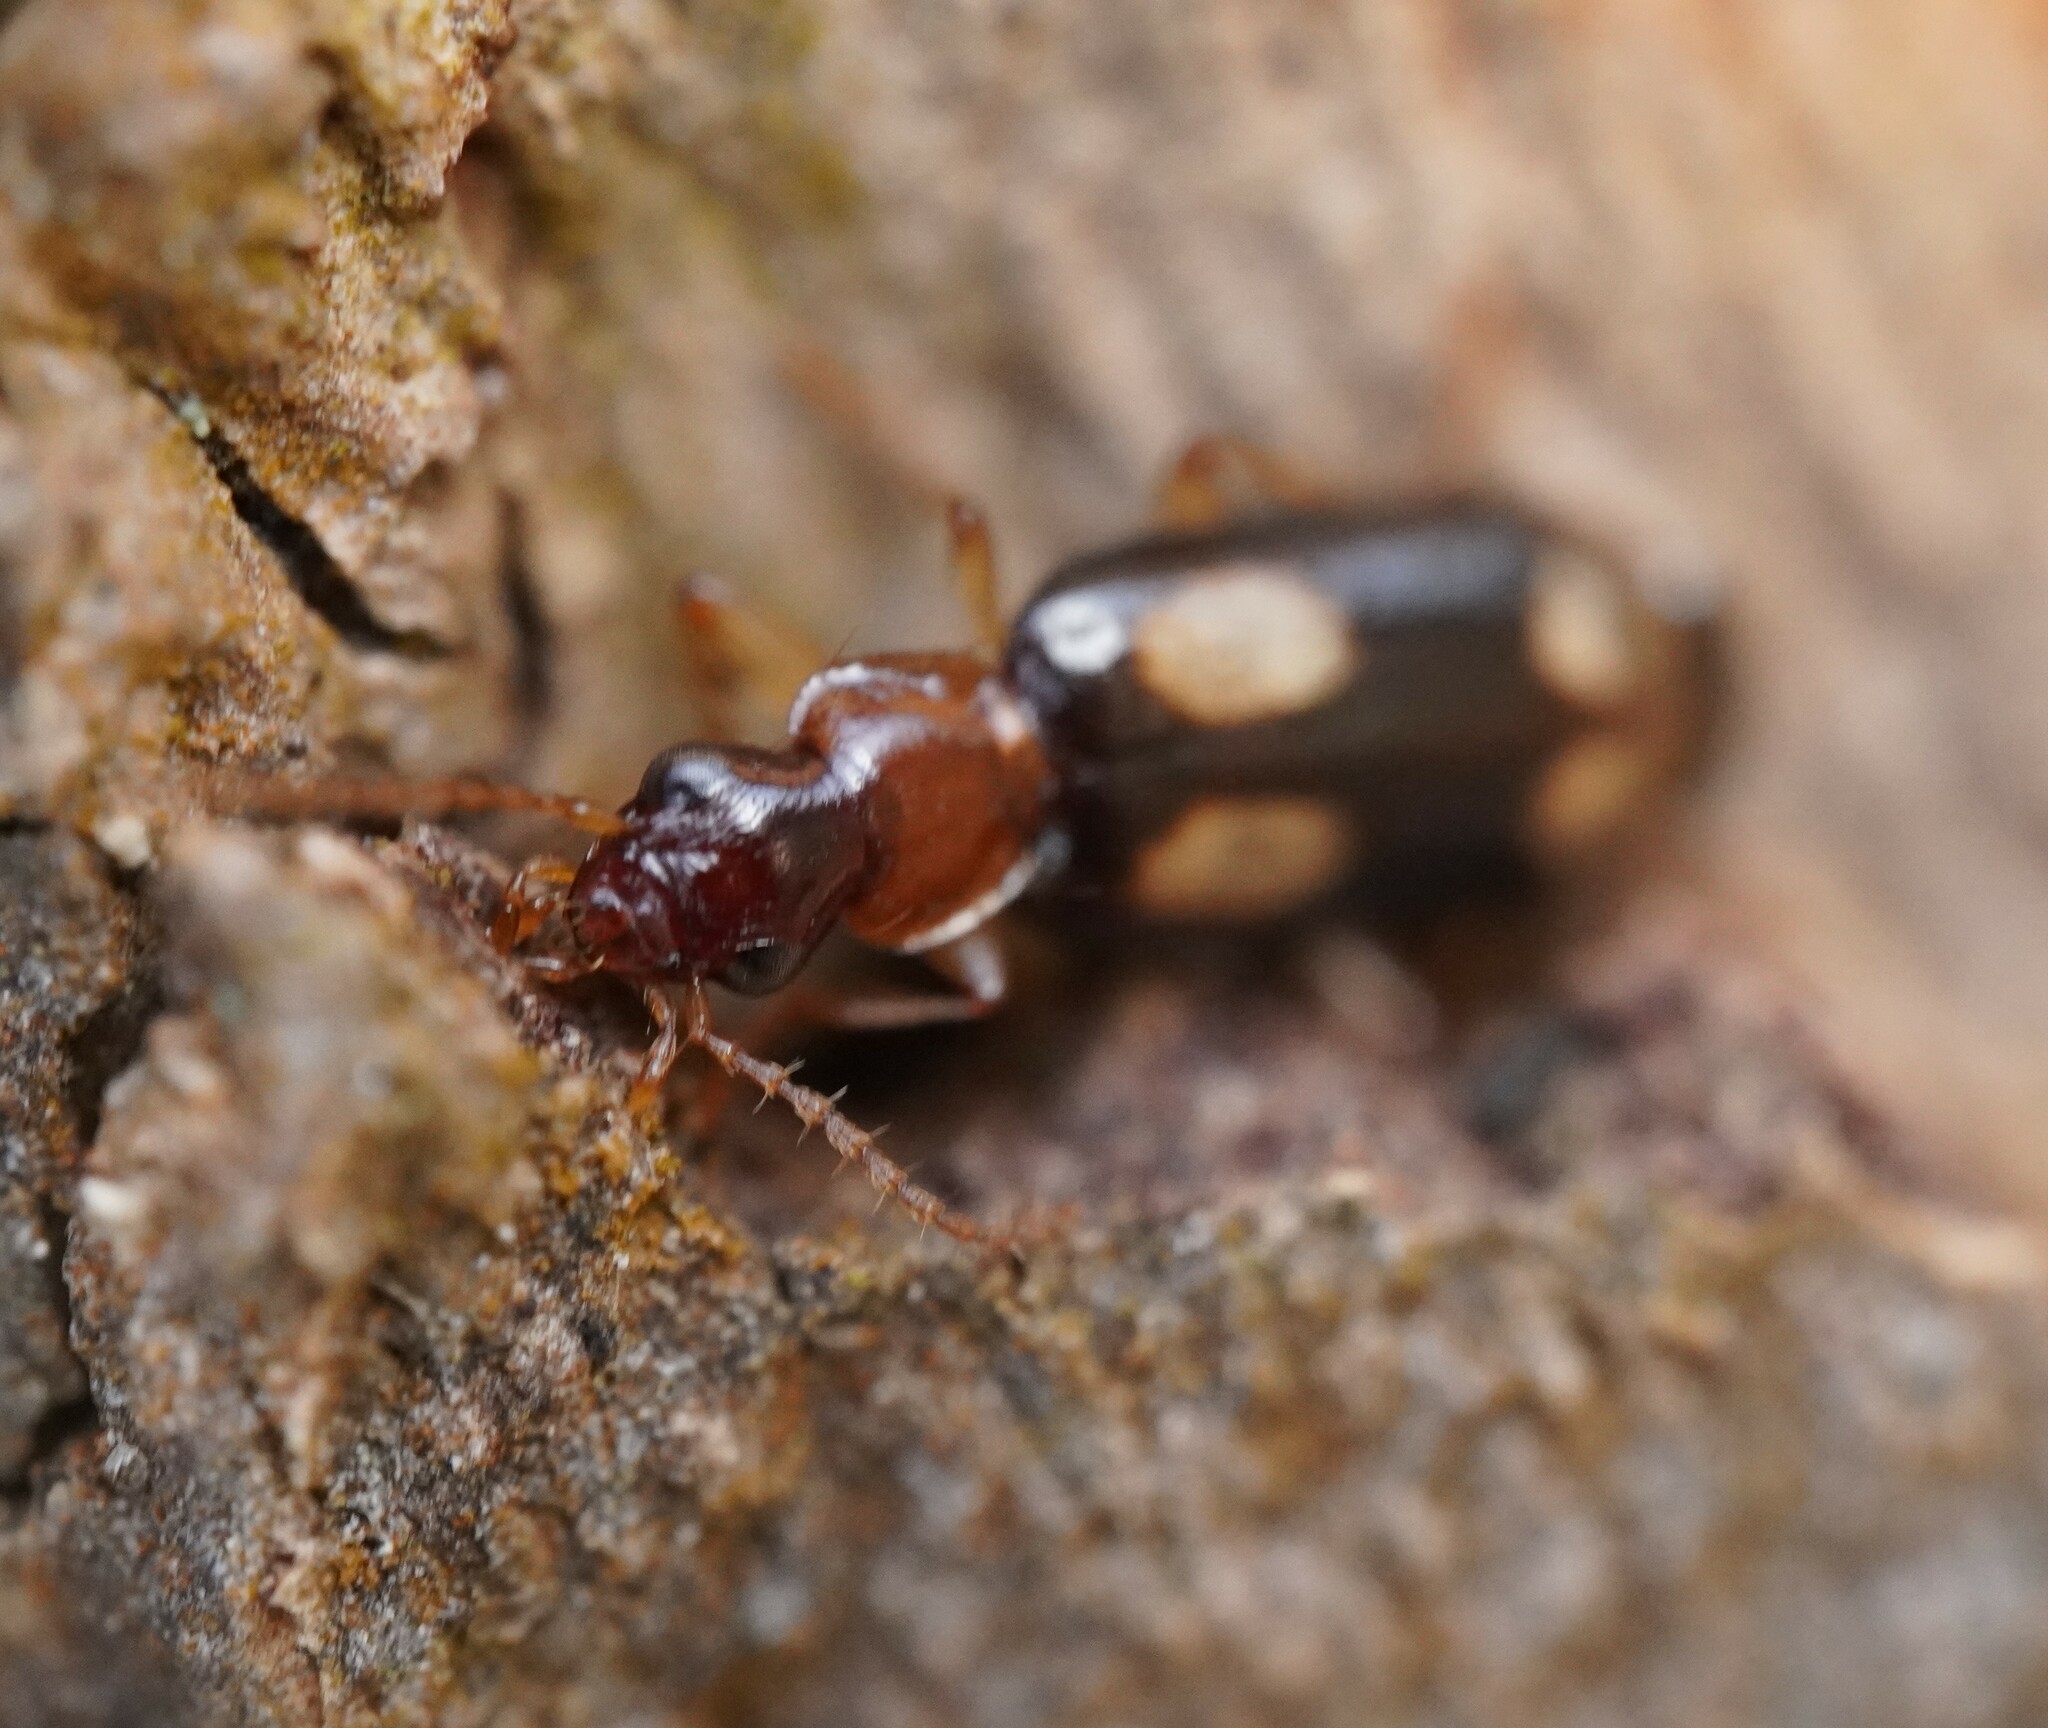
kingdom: Animalia
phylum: Arthropoda
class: Insecta
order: Coleoptera
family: Carabidae
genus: Dromius
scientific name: Dromius quadrimaculatus
